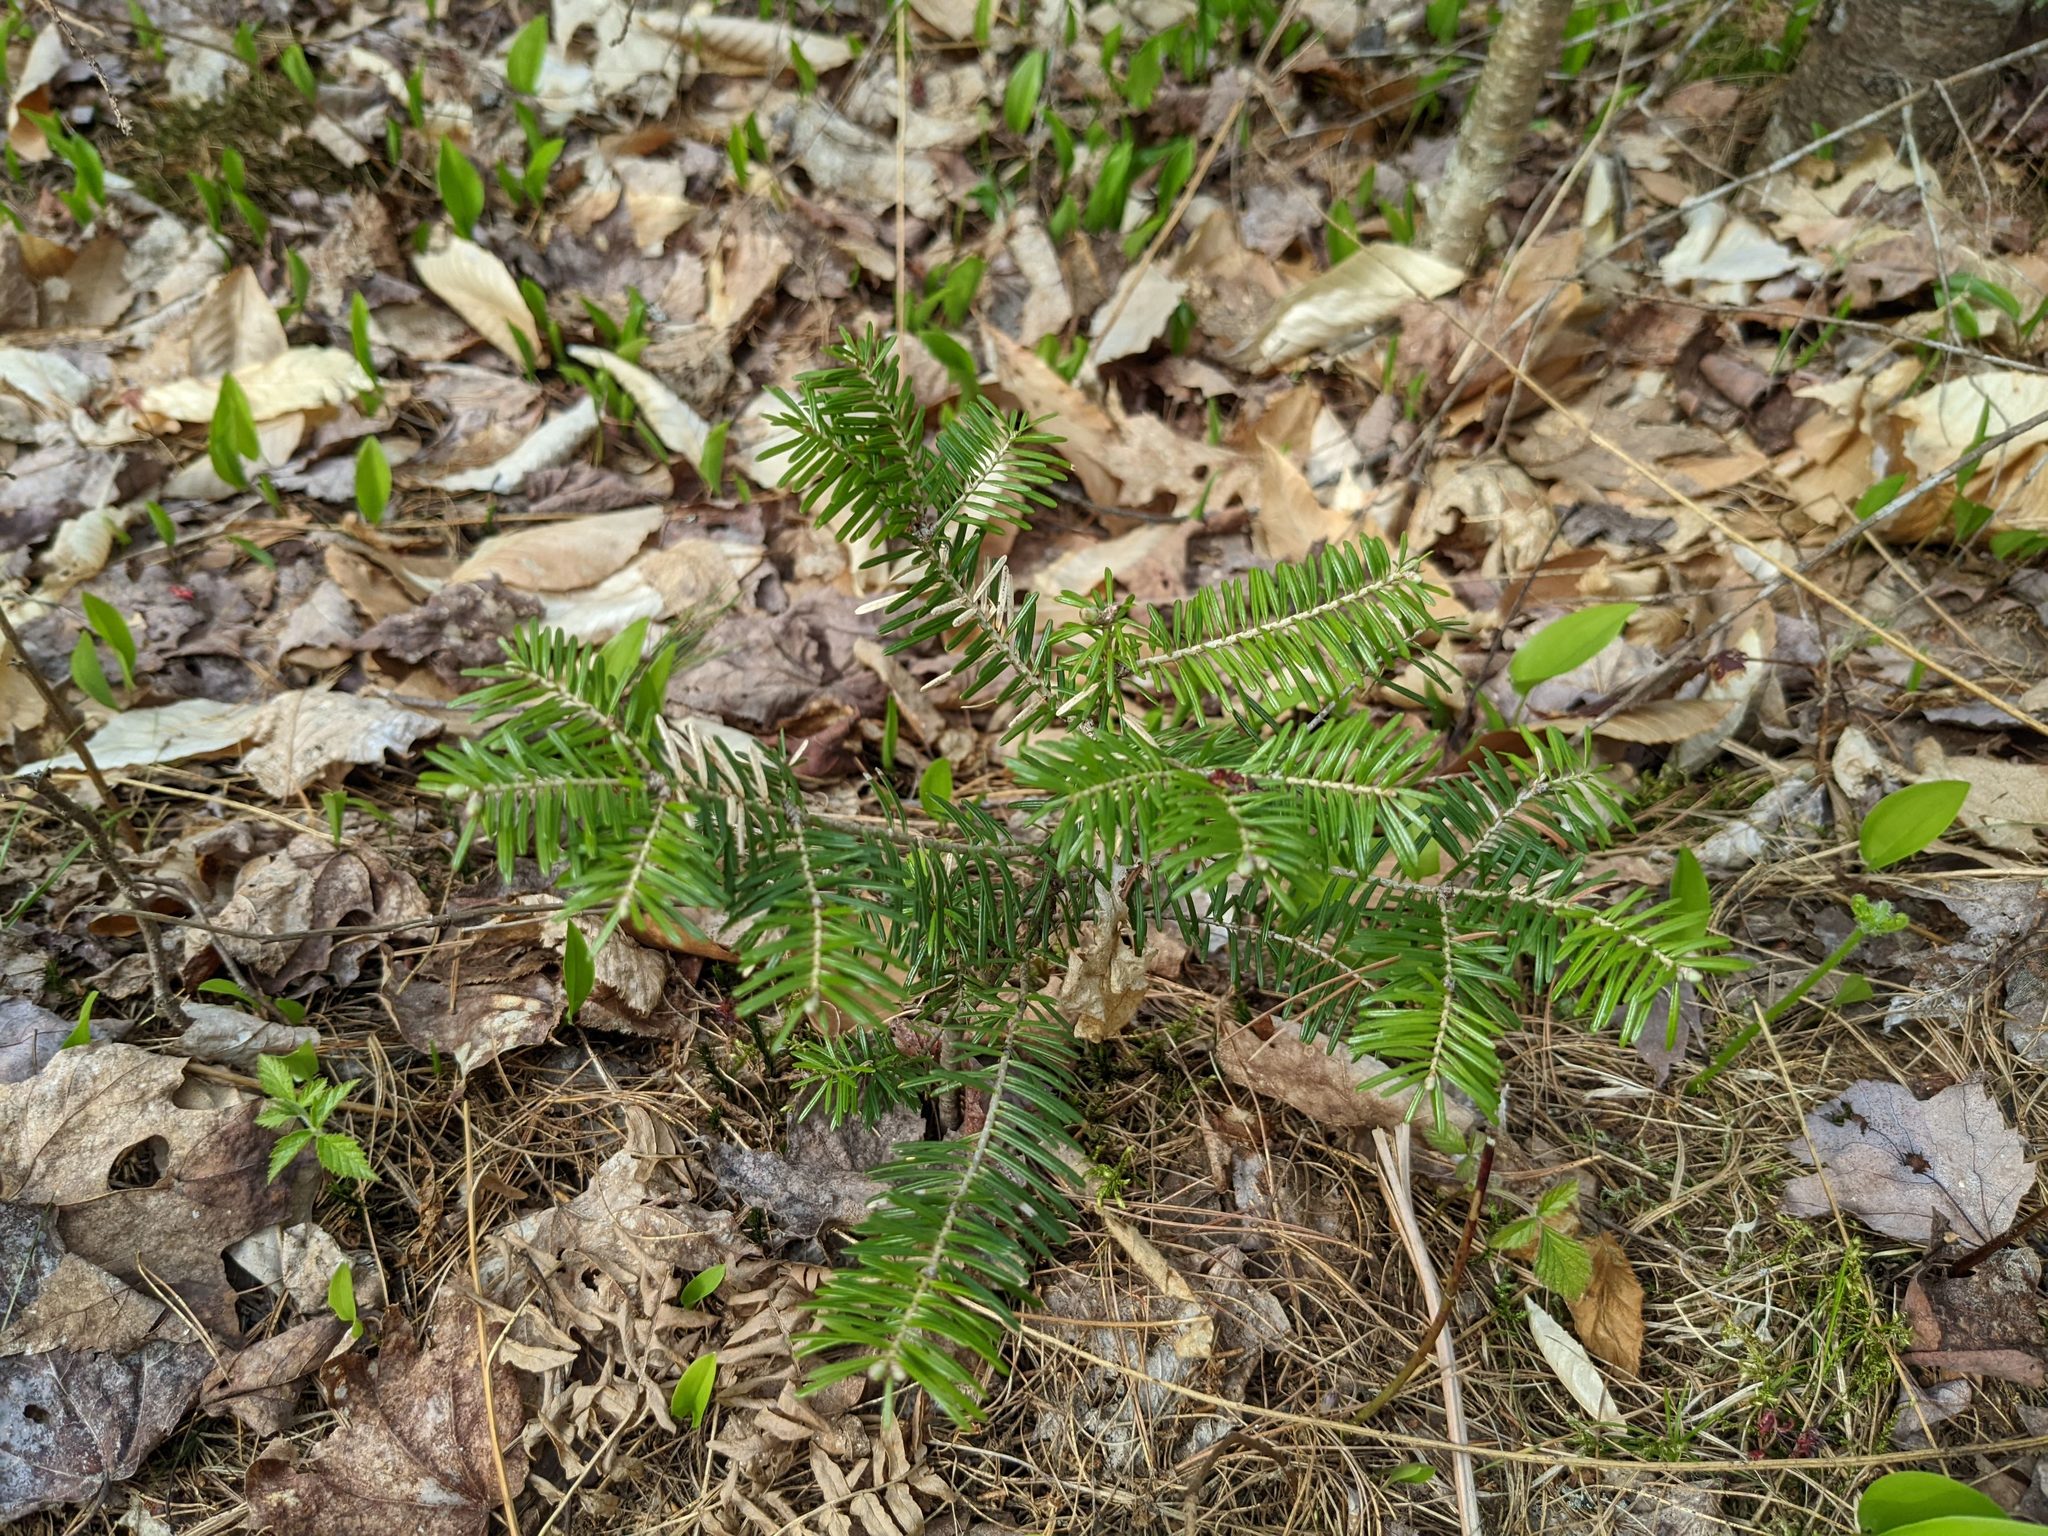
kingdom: Plantae
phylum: Tracheophyta
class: Pinopsida
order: Pinales
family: Pinaceae
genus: Abies
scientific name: Abies balsamea
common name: Balsam fir
